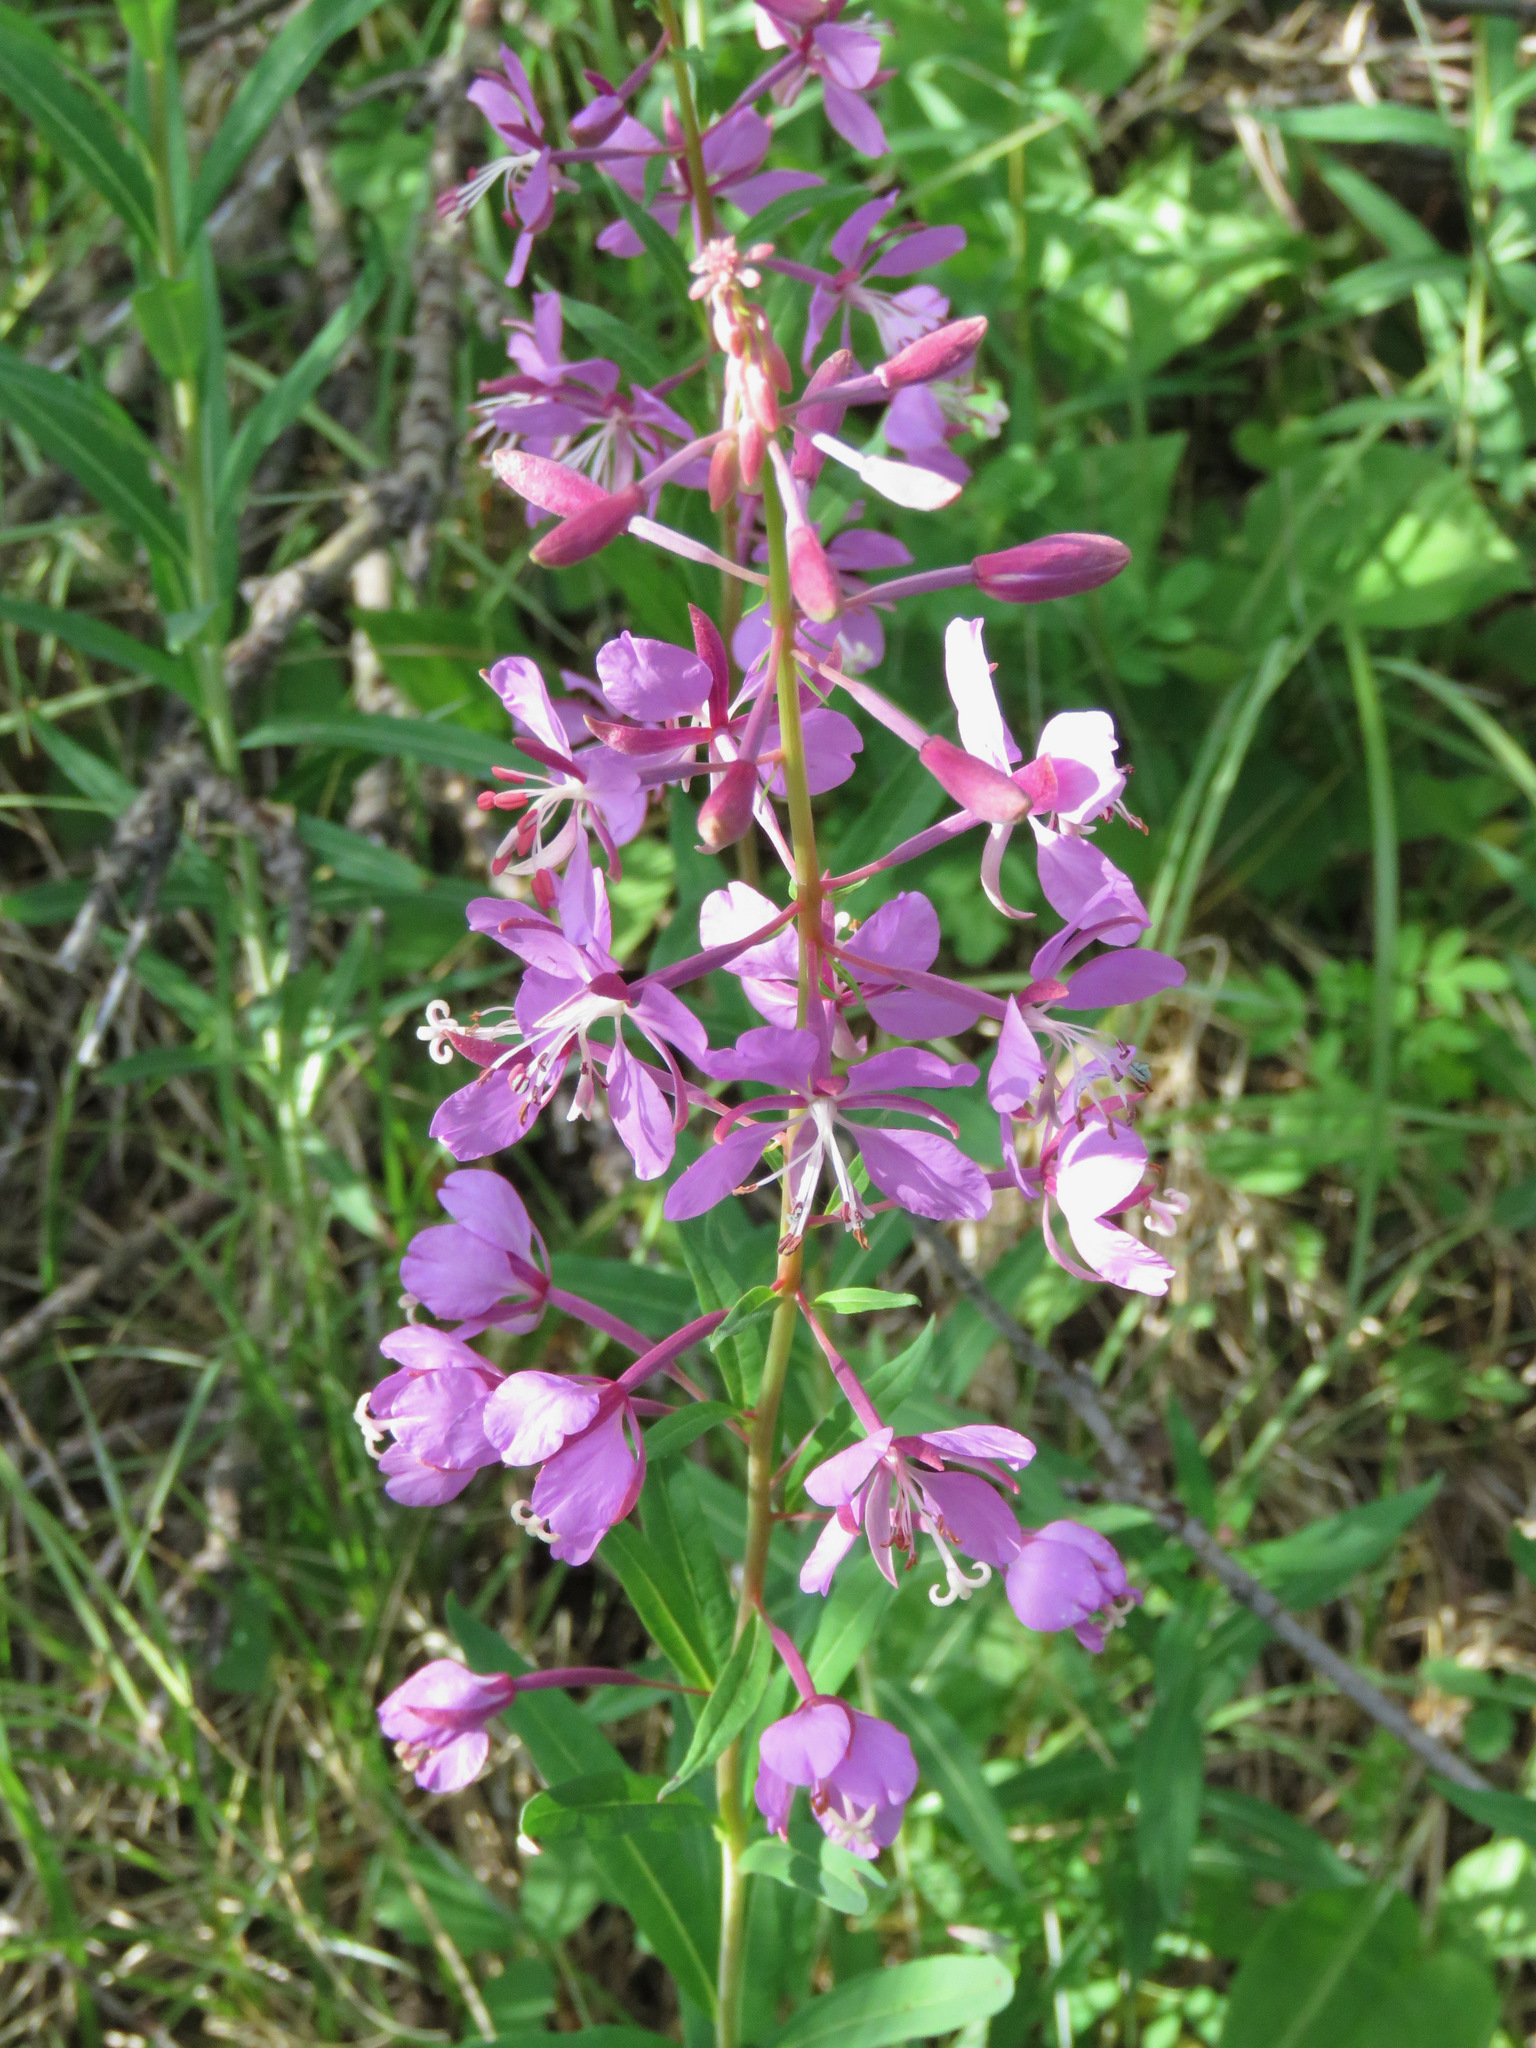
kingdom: Plantae
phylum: Tracheophyta
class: Magnoliopsida
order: Myrtales
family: Onagraceae
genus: Chamaenerion
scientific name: Chamaenerion angustifolium
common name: Fireweed
